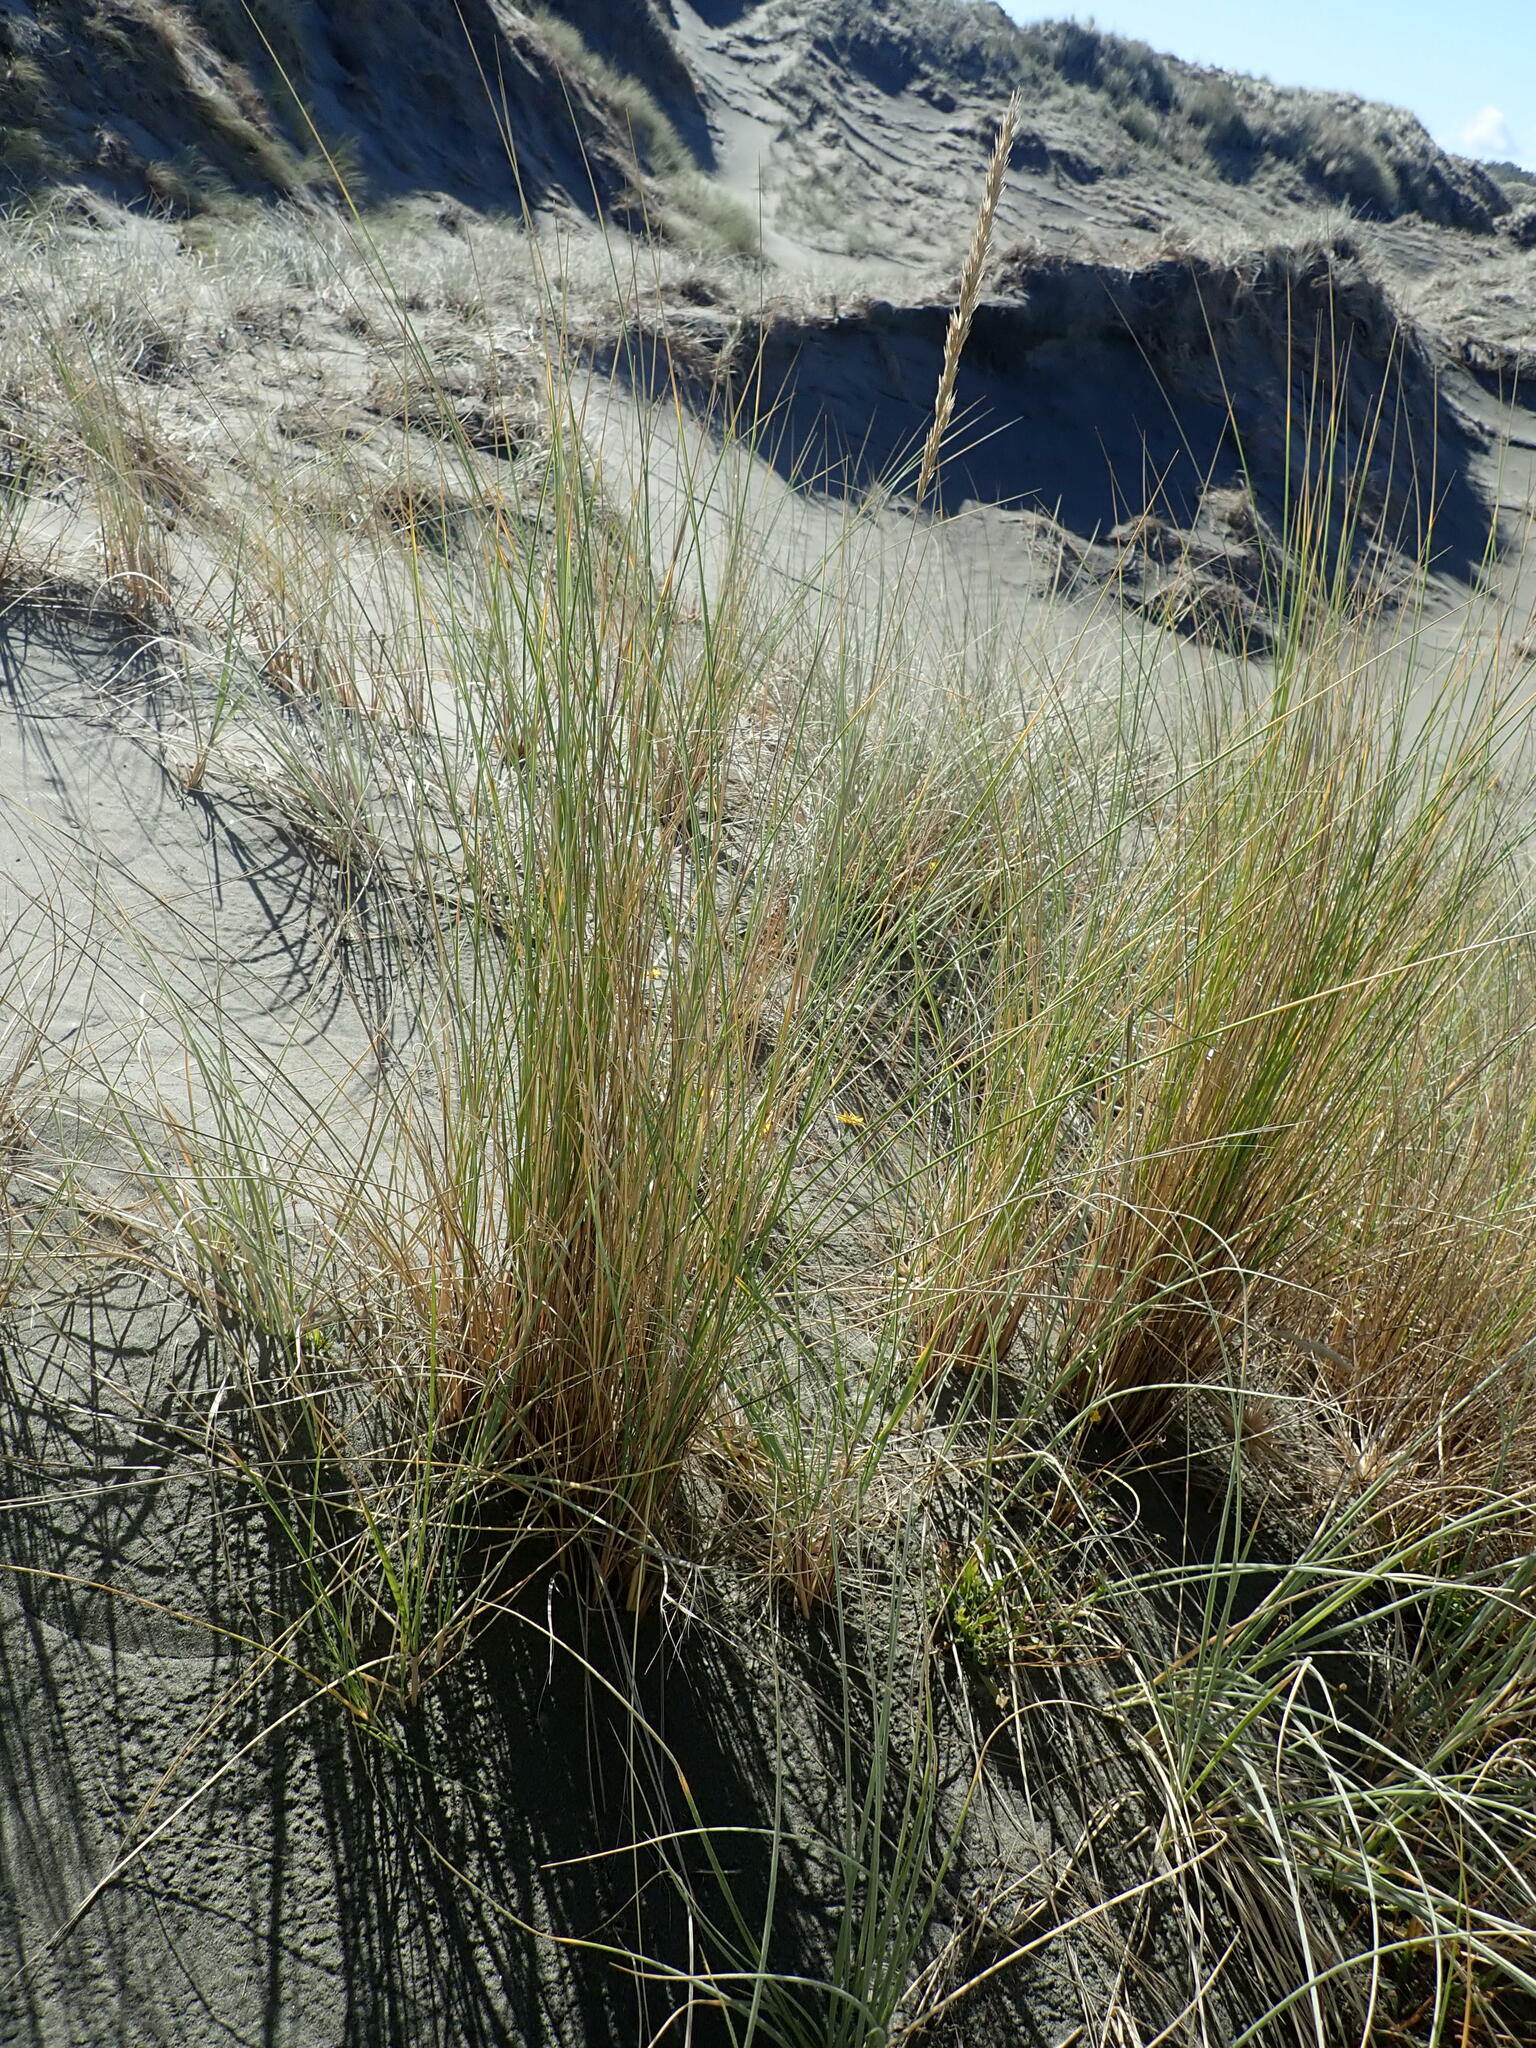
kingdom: Plantae
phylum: Tracheophyta
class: Liliopsida
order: Poales
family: Poaceae
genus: Calamagrostis
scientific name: Calamagrostis arenaria
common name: European beachgrass
